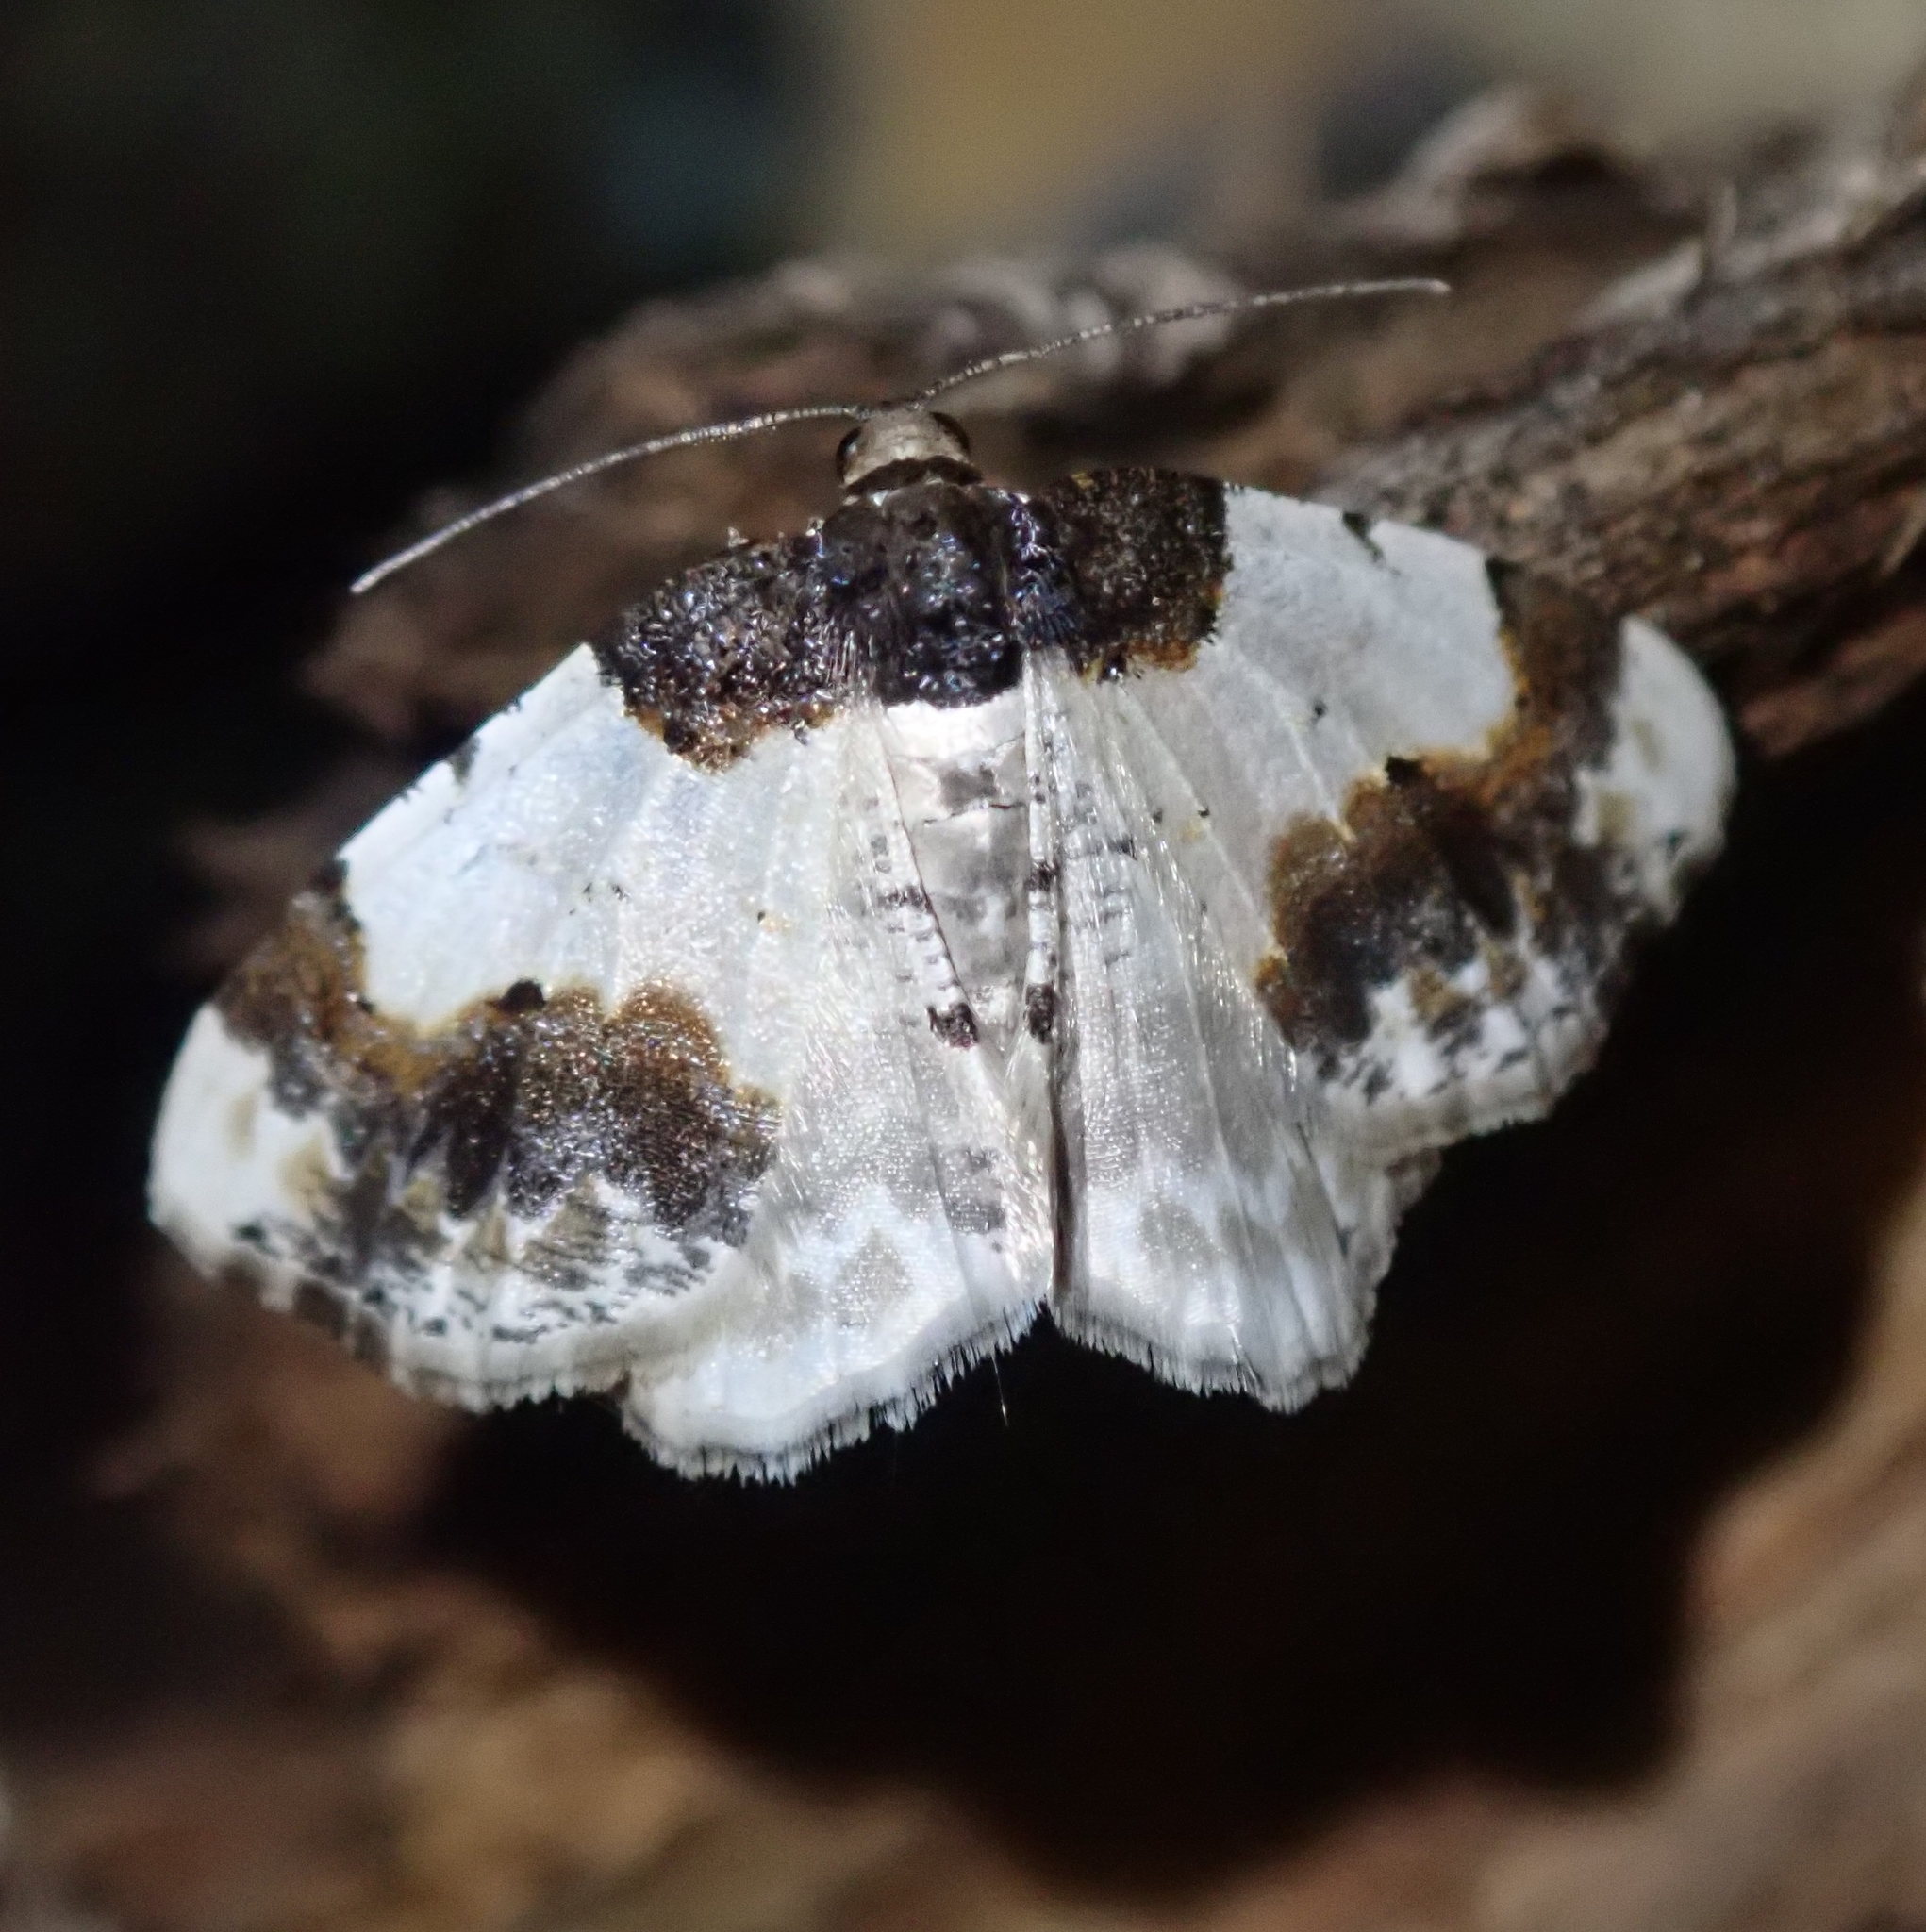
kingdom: Animalia
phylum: Arthropoda
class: Insecta
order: Lepidoptera
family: Geometridae
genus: Ligdia
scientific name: Ligdia adustata
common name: Scorched carpet
